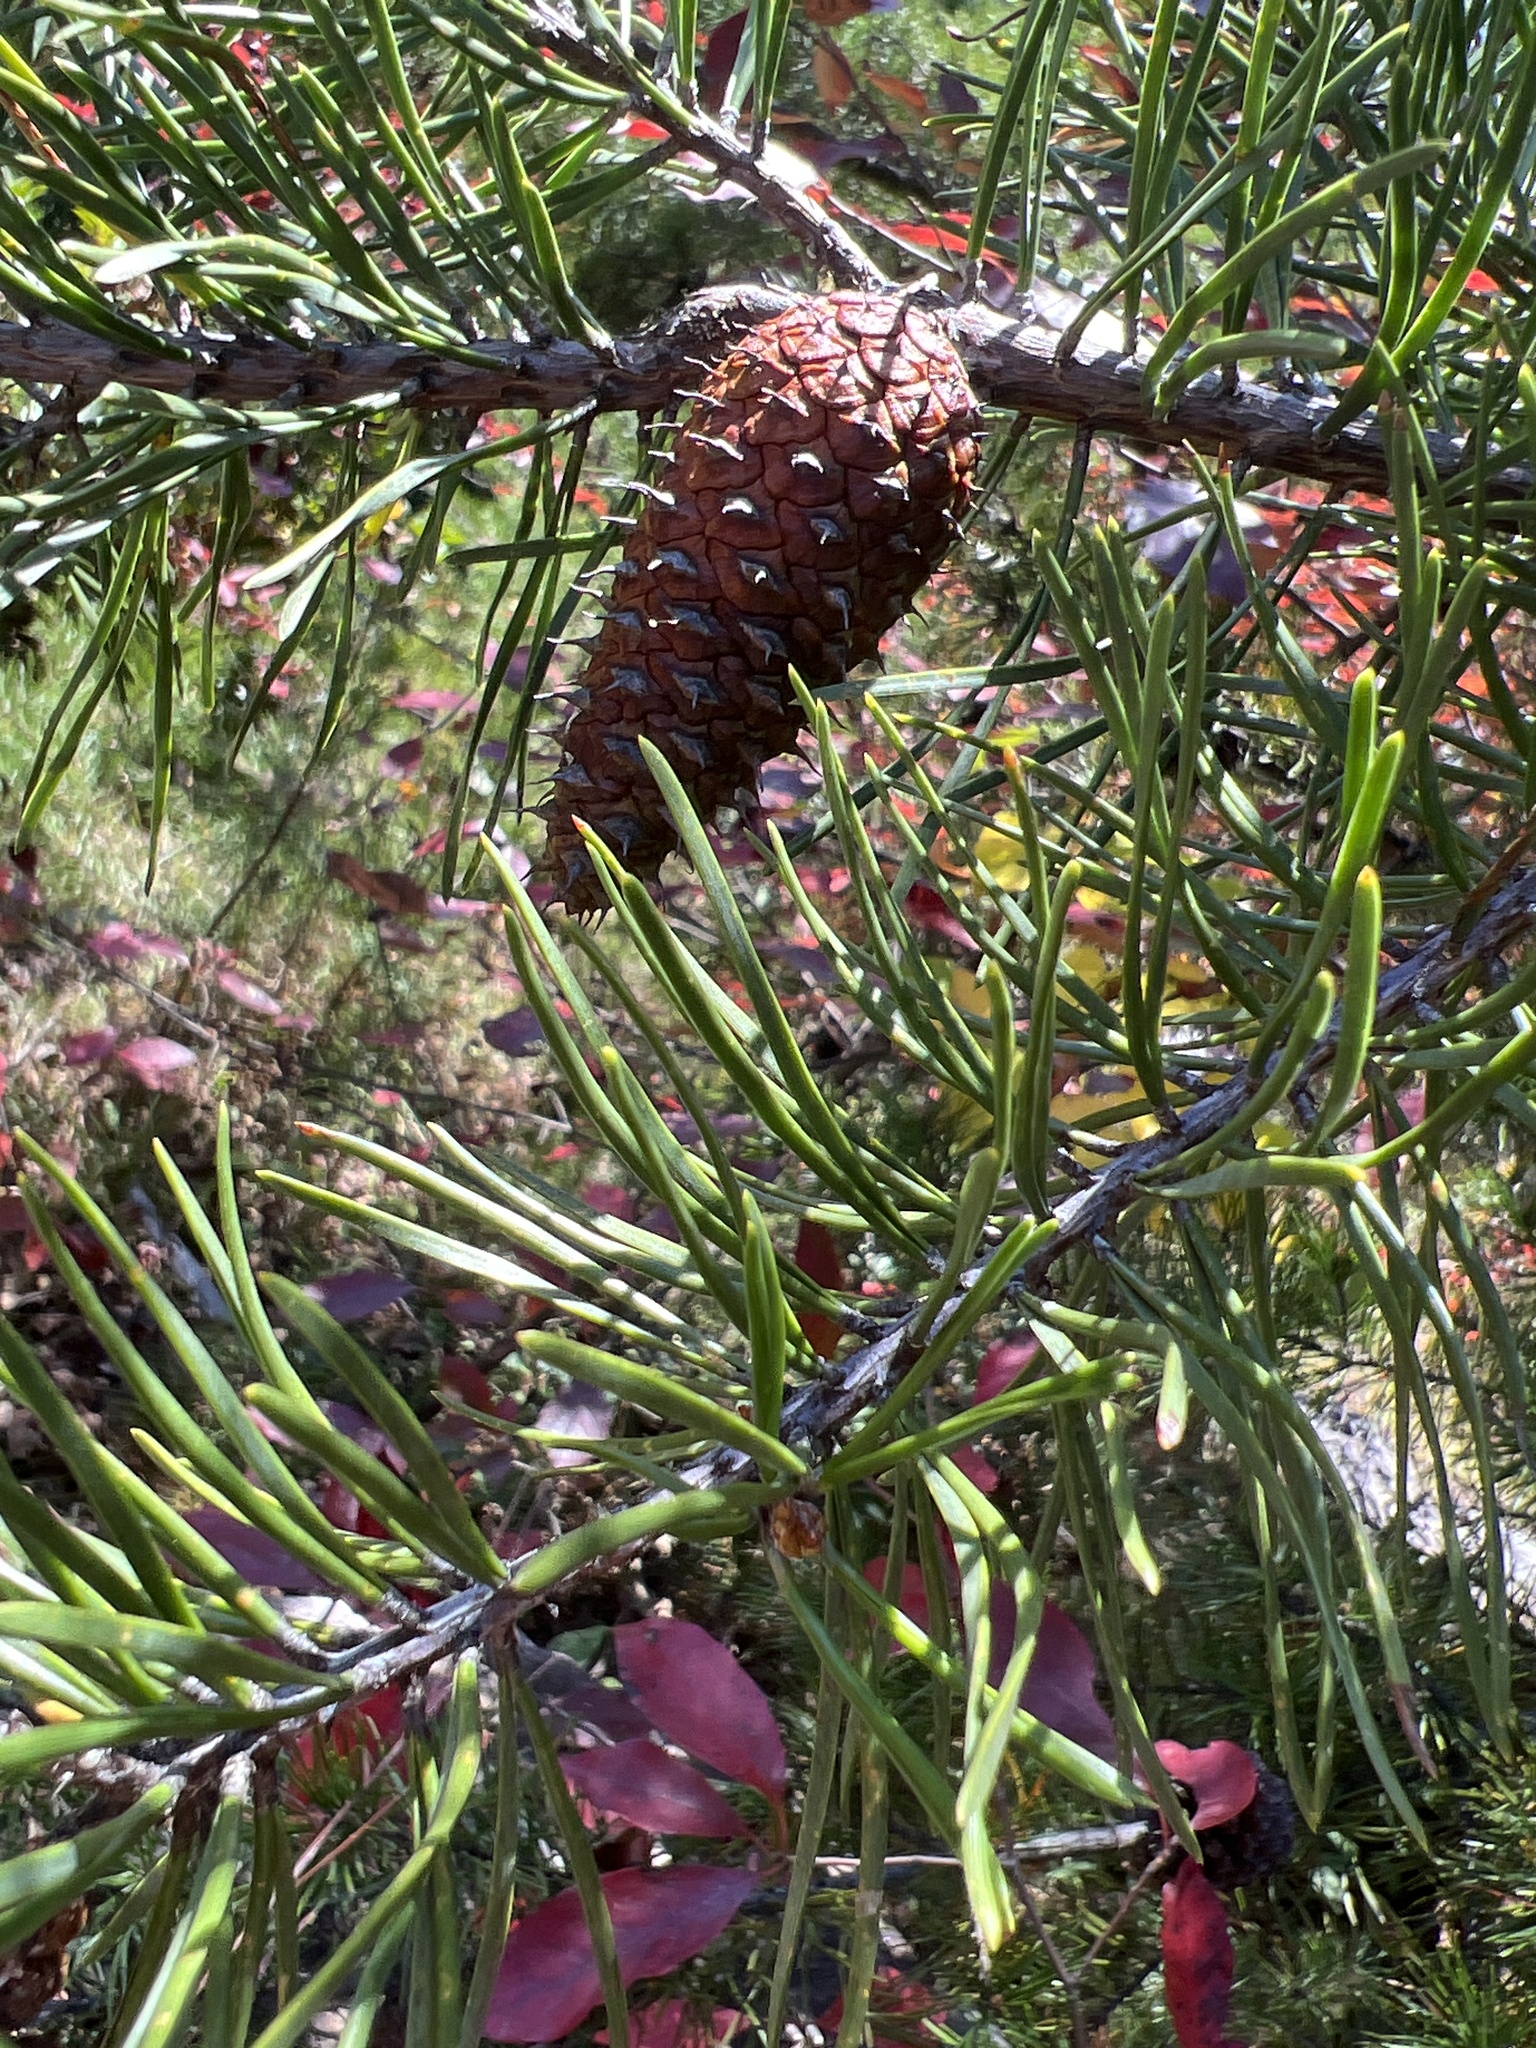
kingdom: Plantae
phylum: Tracheophyta
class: Pinopsida
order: Pinales
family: Pinaceae
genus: Pinus
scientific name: Pinus virginiana
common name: Scrub pine
